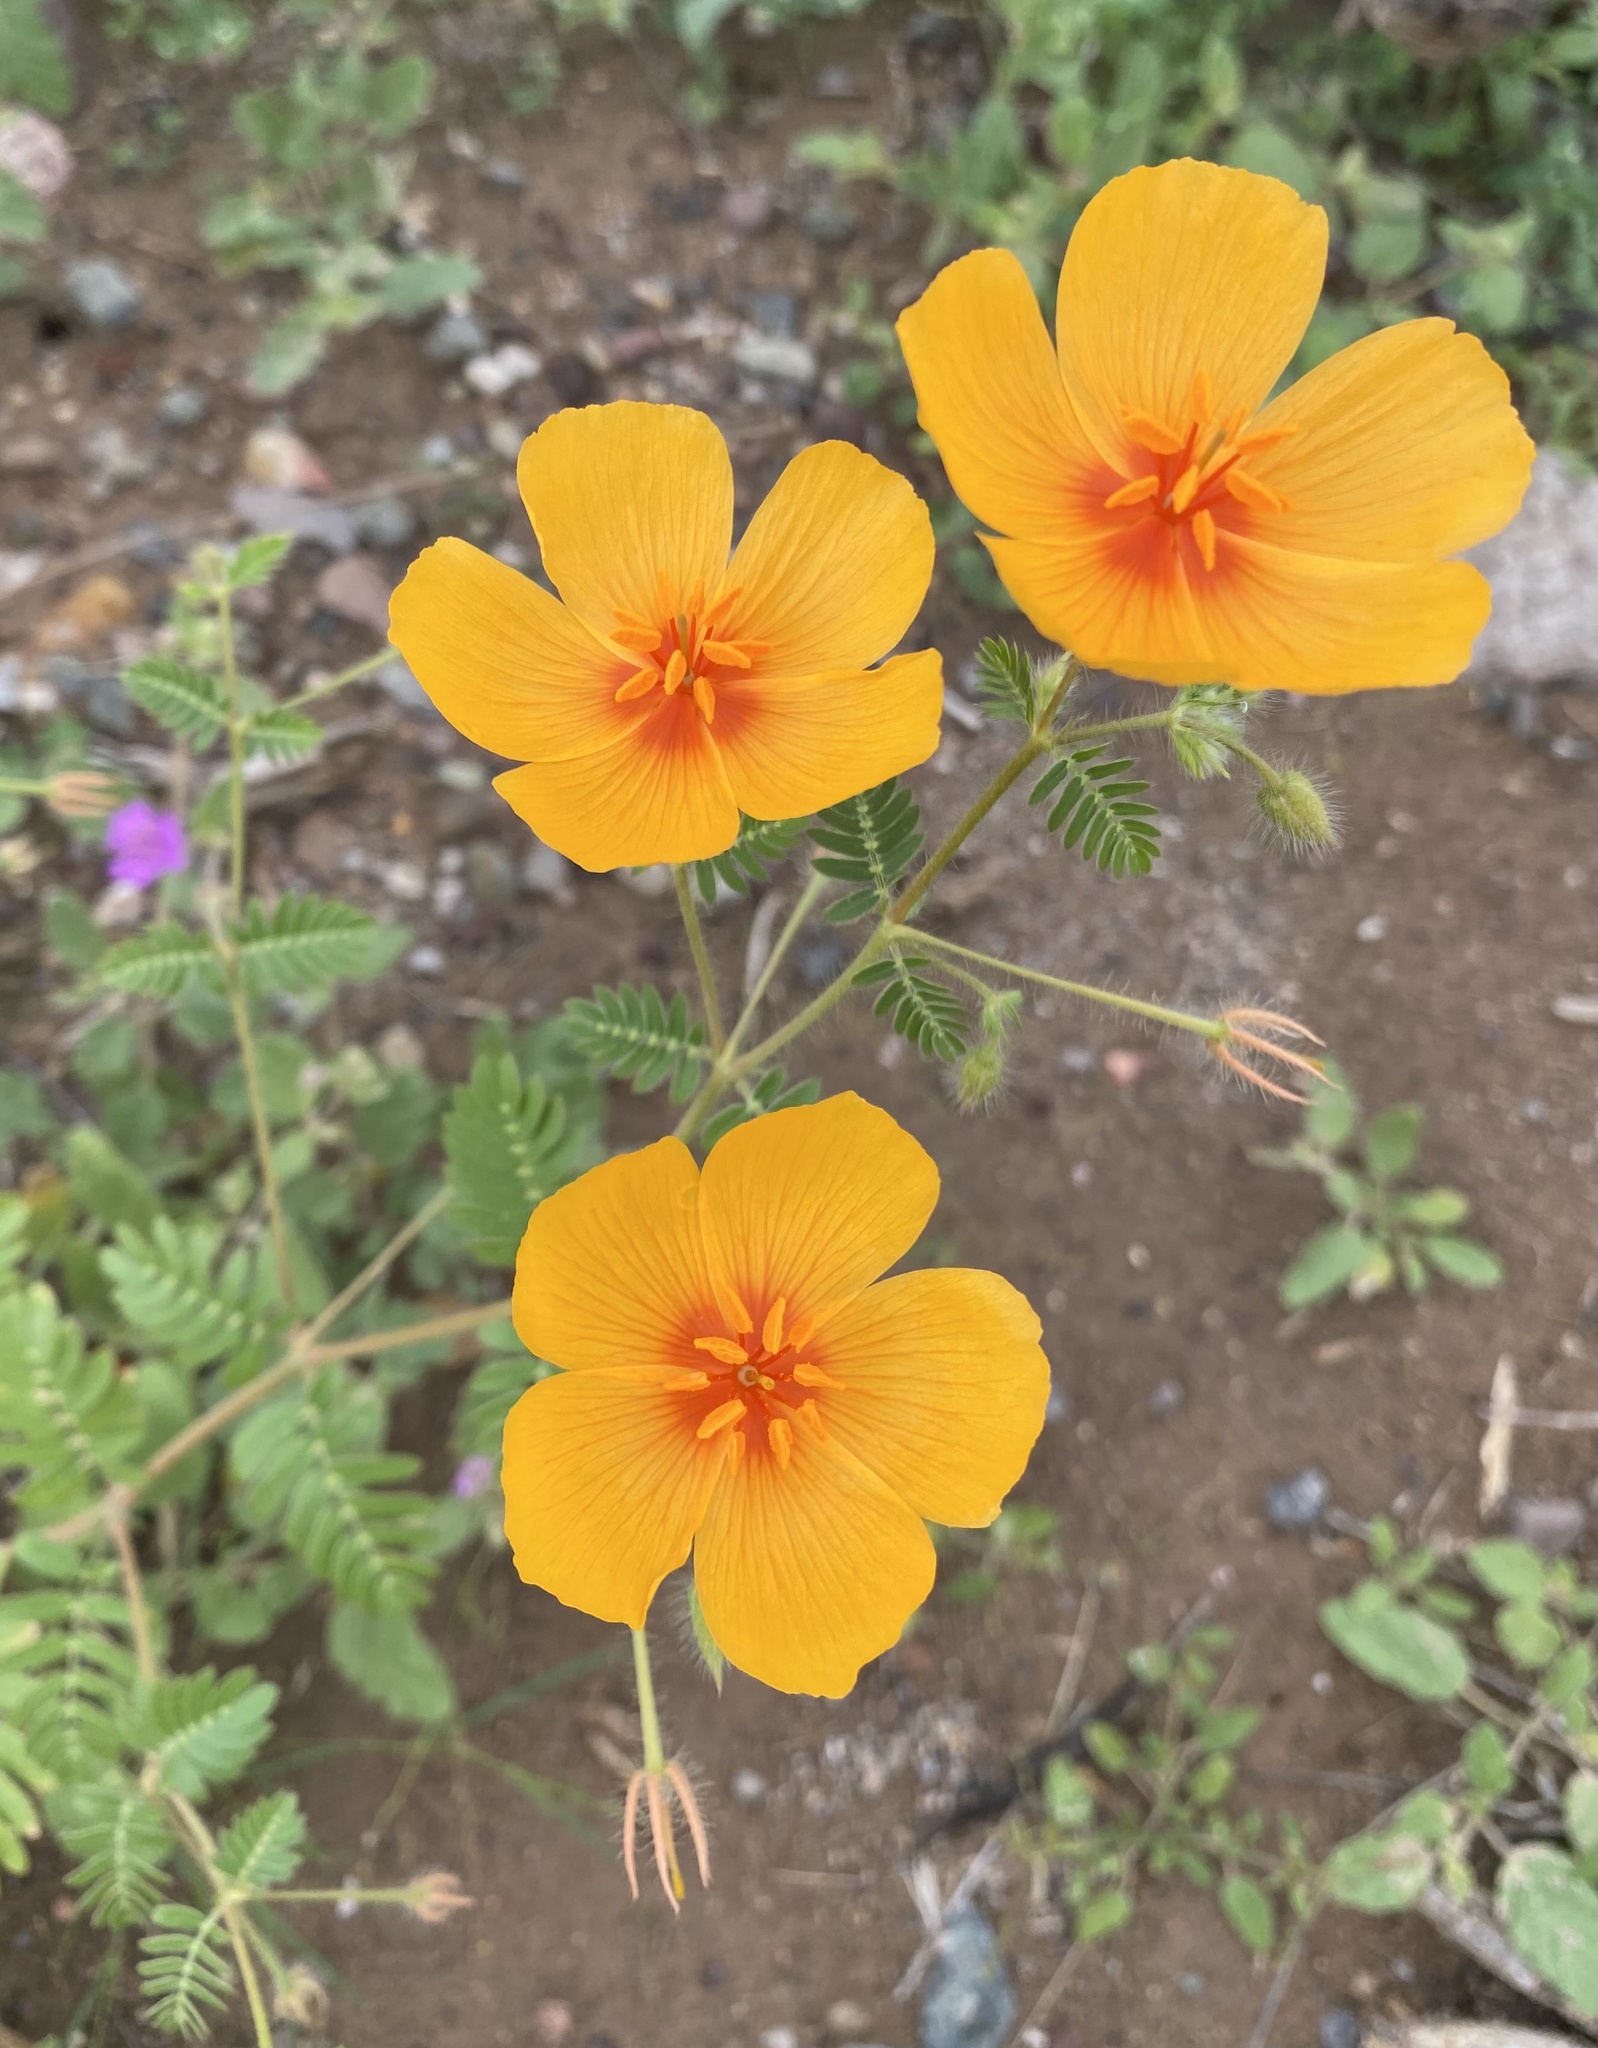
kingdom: Plantae
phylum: Tracheophyta
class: Magnoliopsida
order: Zygophyllales
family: Zygophyllaceae
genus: Kallstroemia
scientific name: Kallstroemia grandiflora
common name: Arizona-poppy
